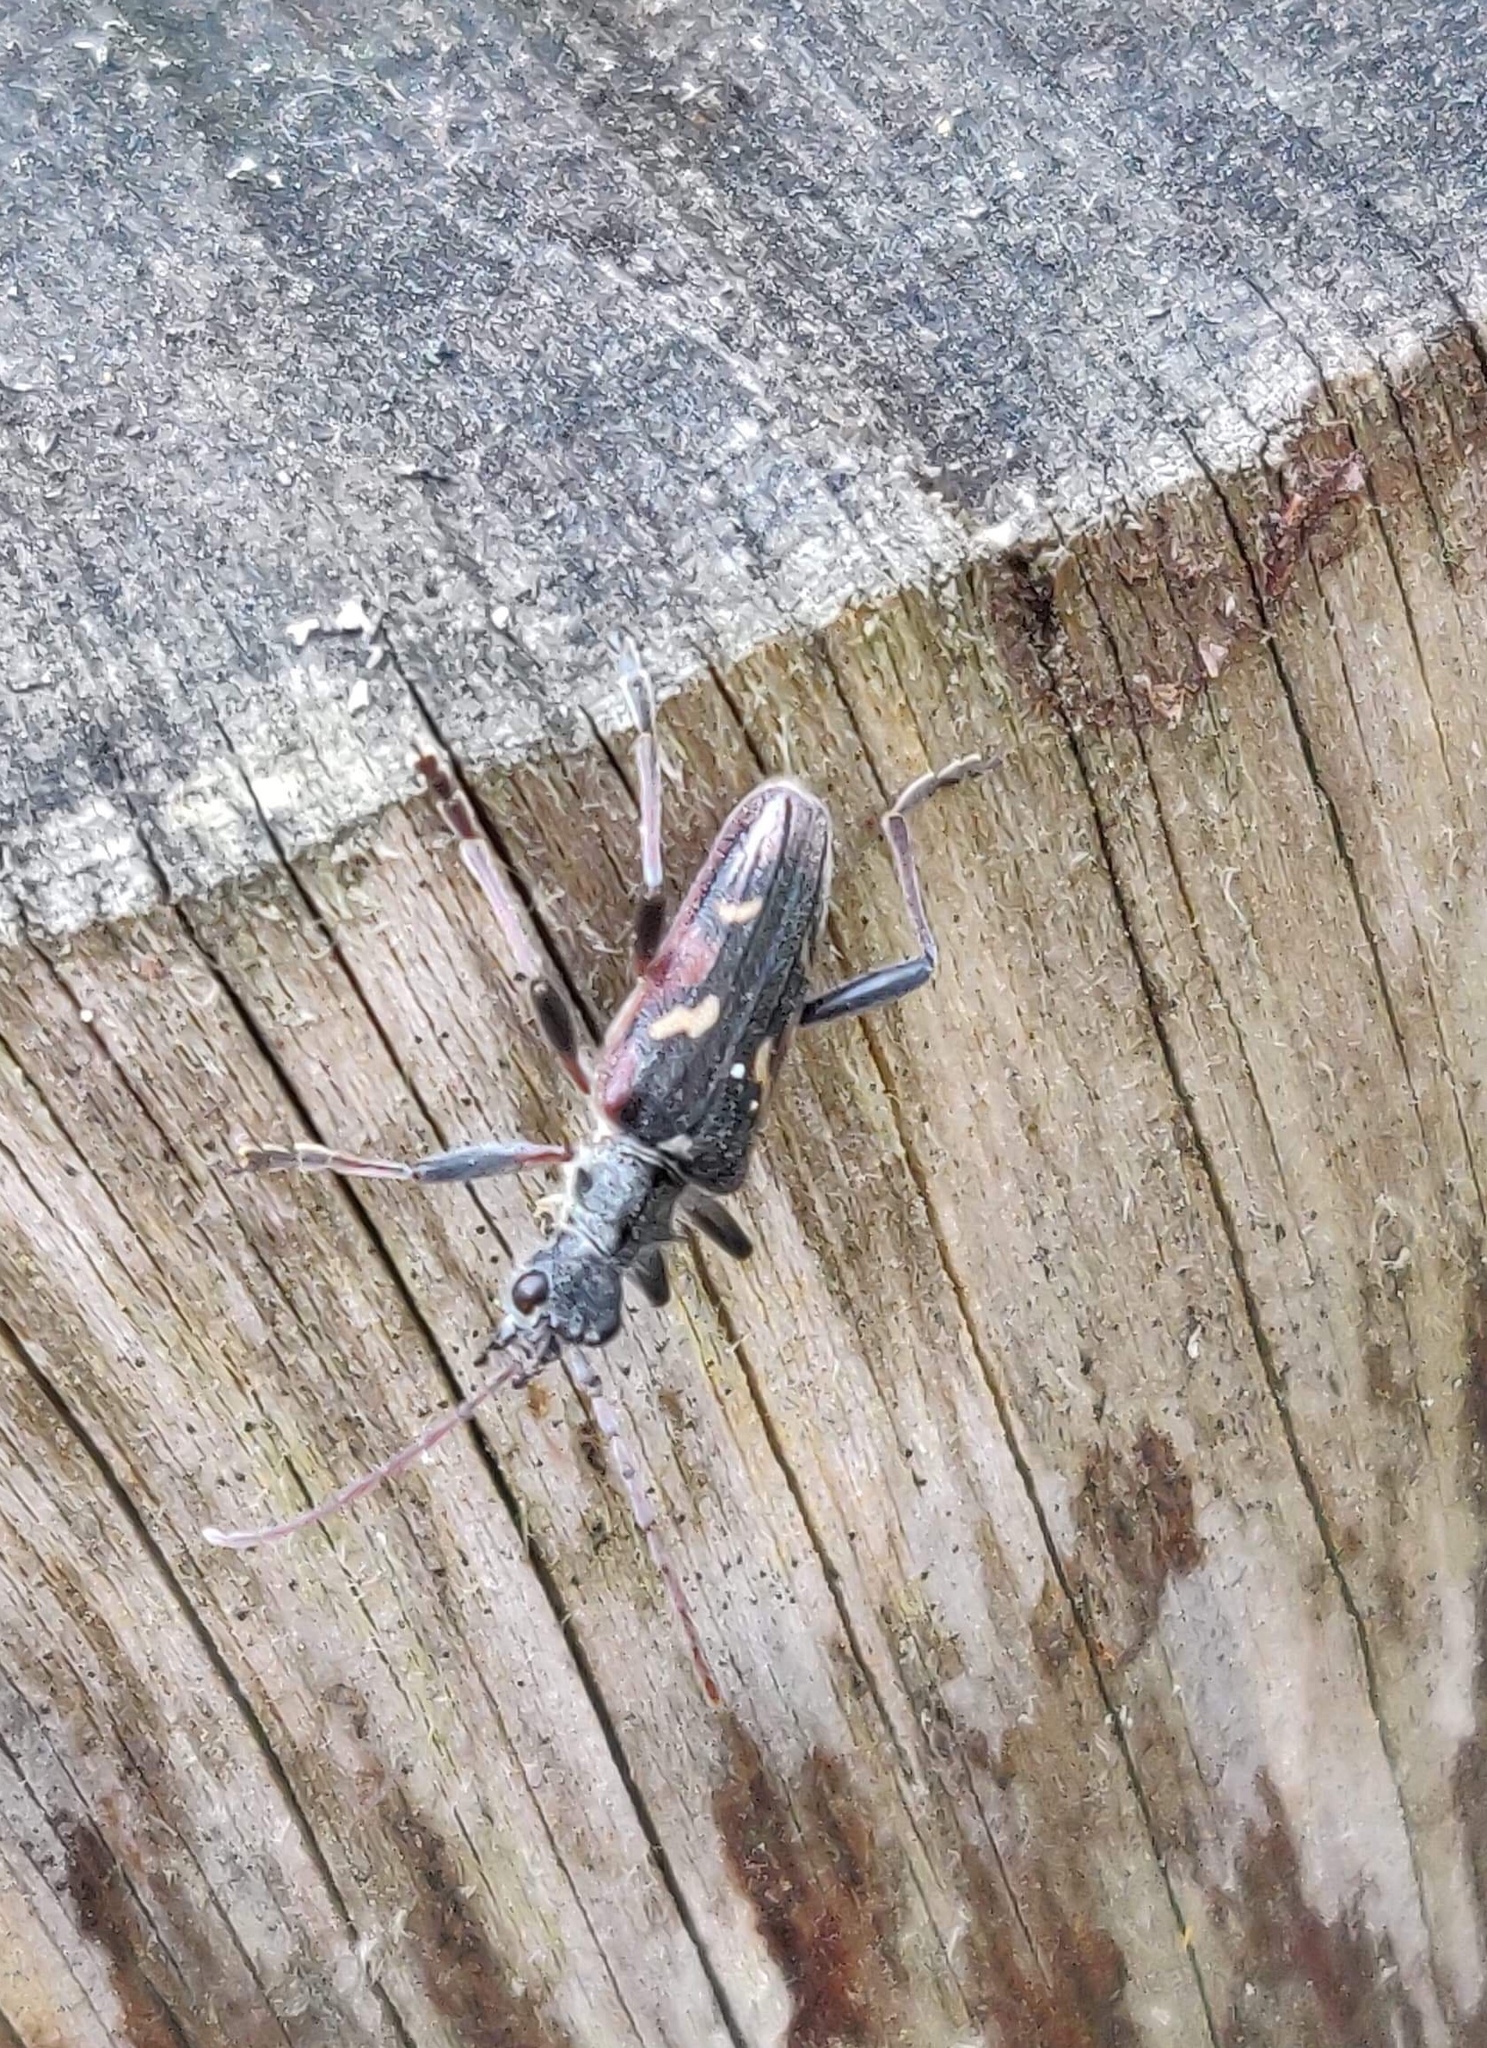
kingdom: Animalia
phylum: Arthropoda
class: Insecta
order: Coleoptera
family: Cerambycidae
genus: Rhagium
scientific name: Rhagium bifasciatum
